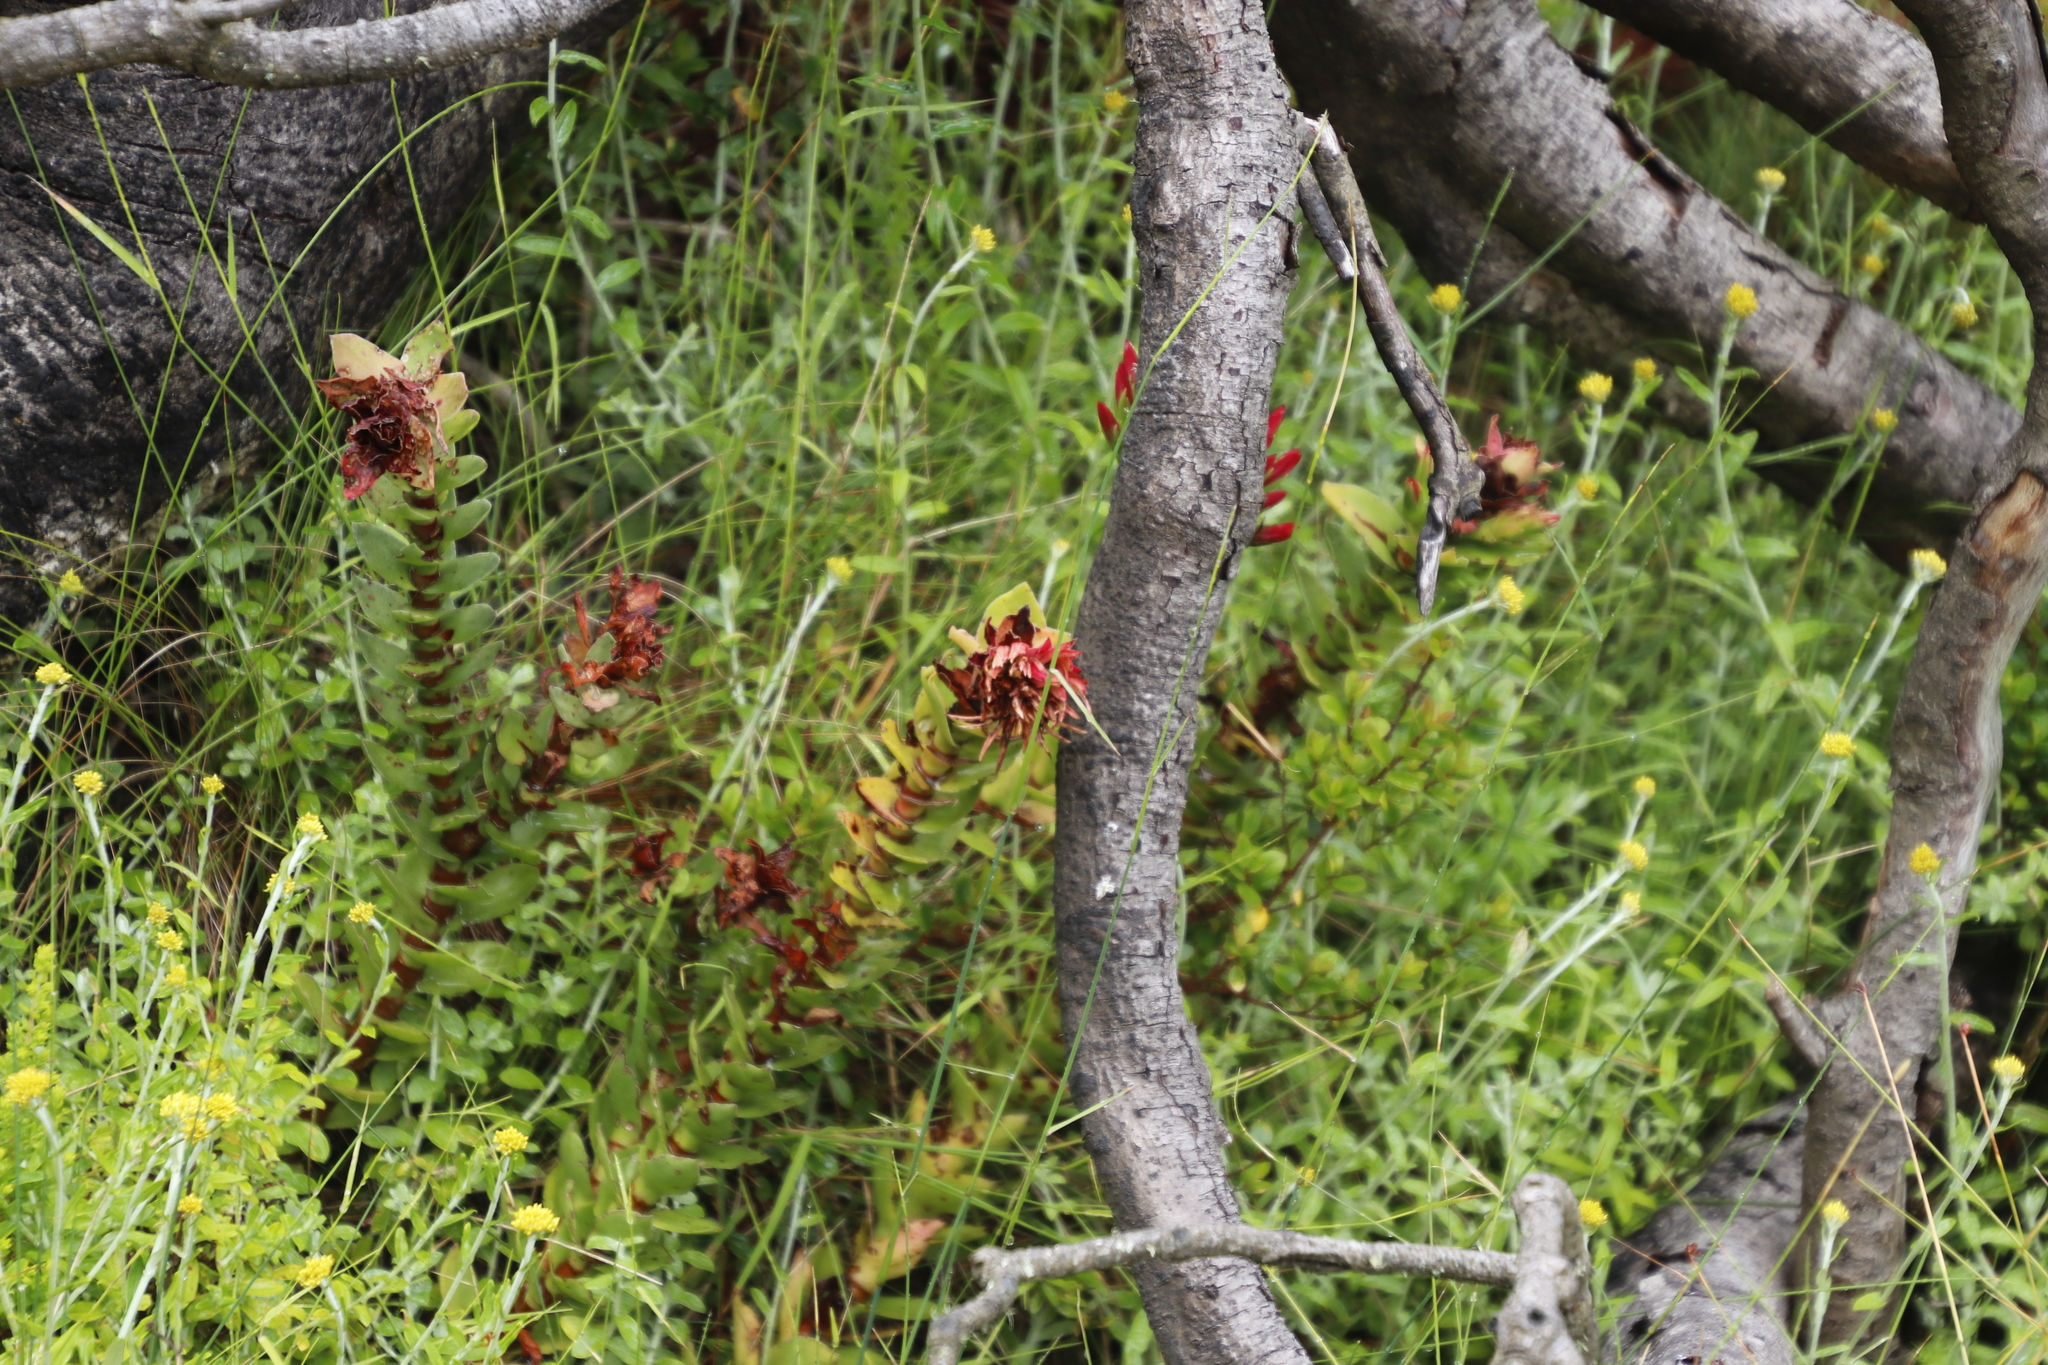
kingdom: Plantae
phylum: Tracheophyta
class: Magnoliopsida
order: Saxifragales
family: Crassulaceae
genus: Crassula
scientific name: Crassula coccinea
